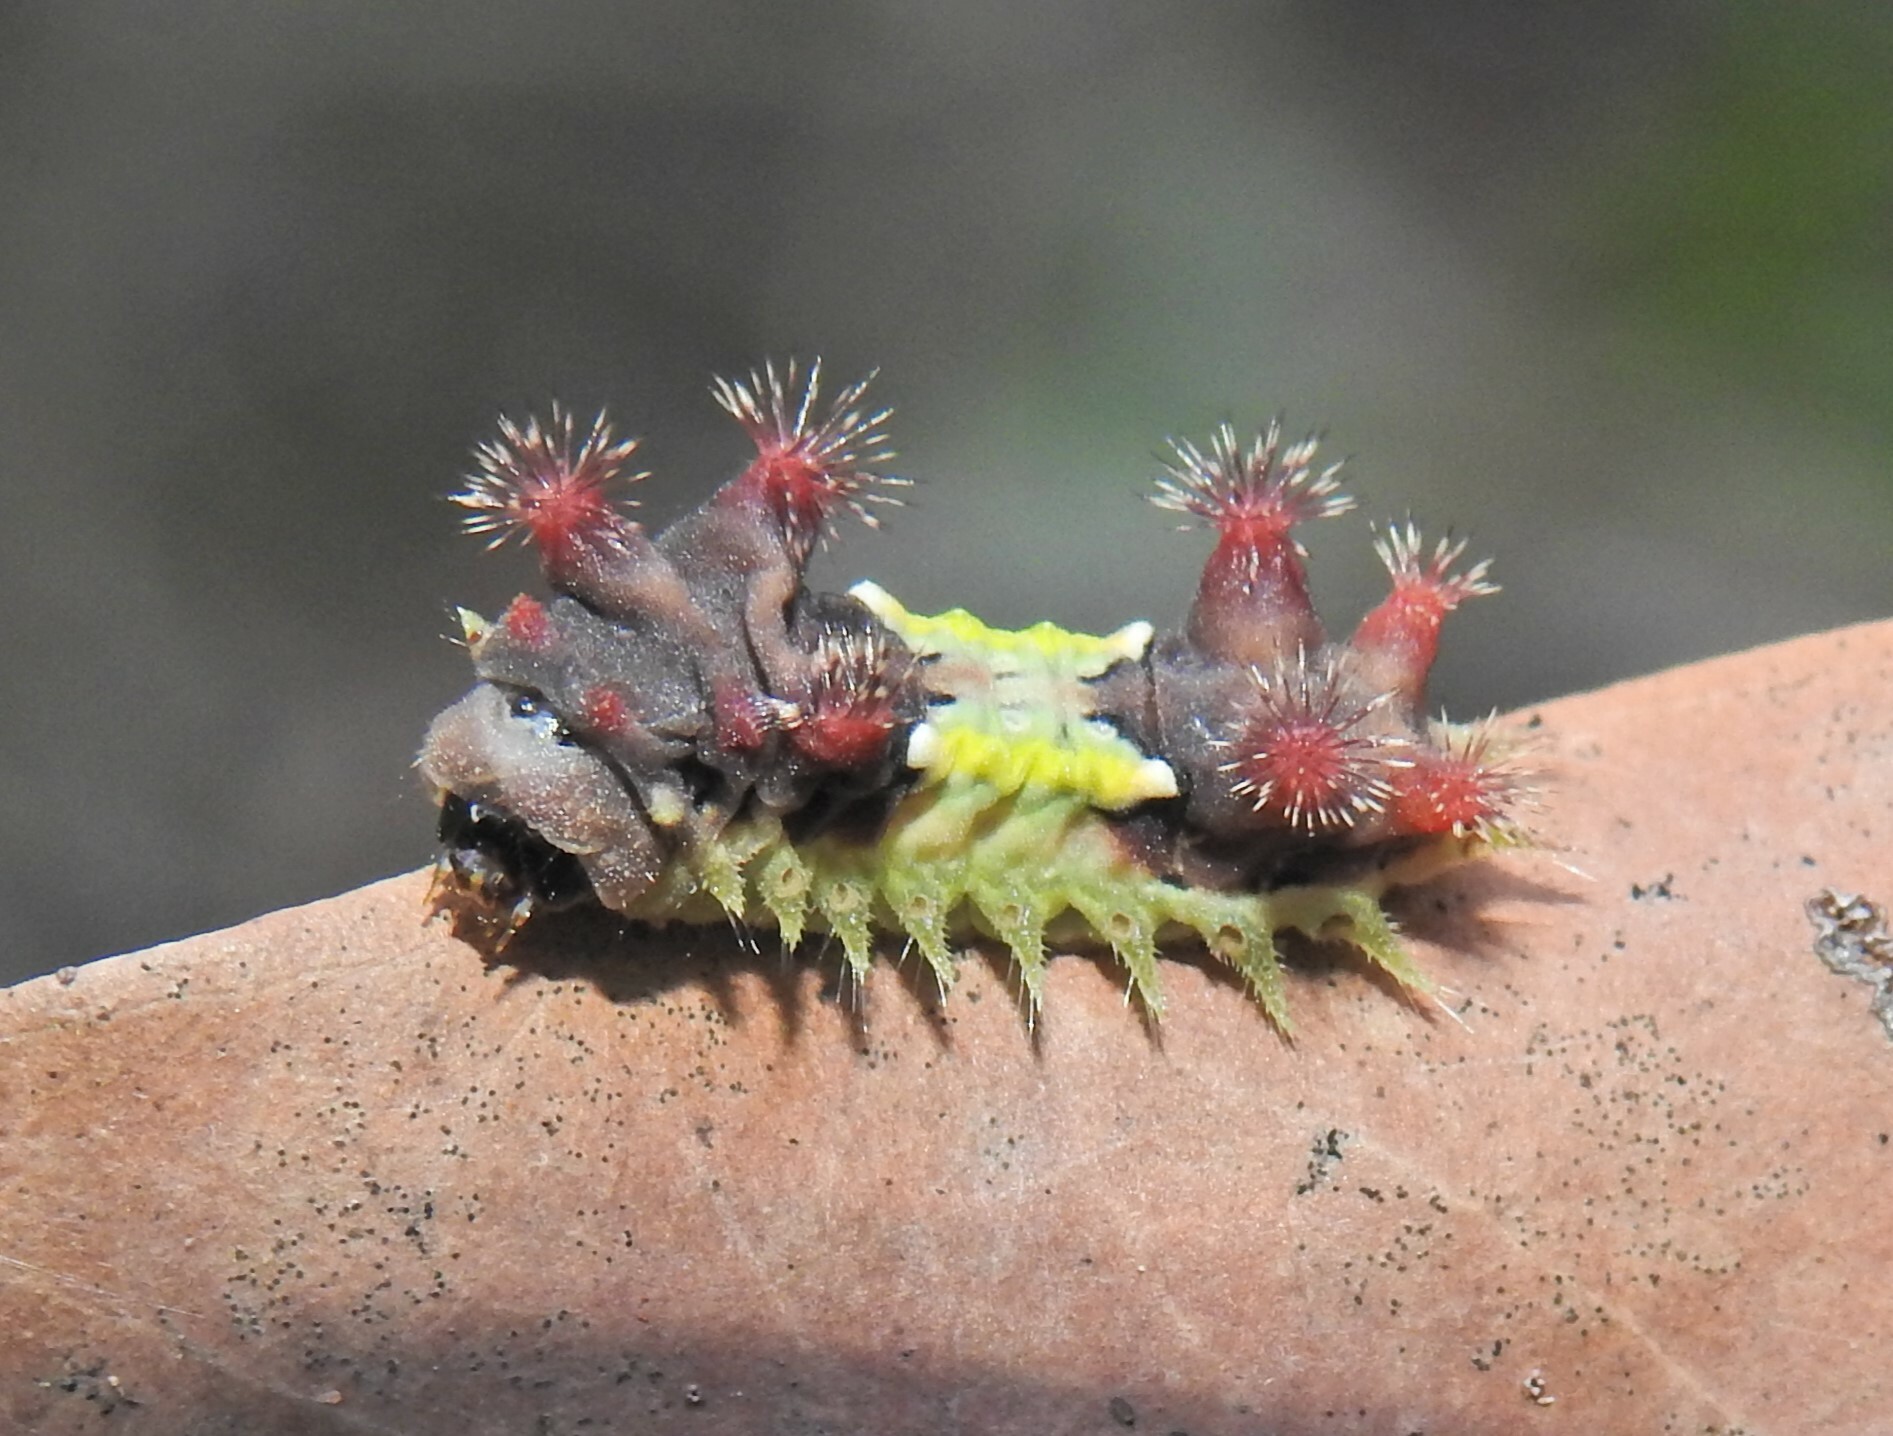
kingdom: Animalia
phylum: Arthropoda
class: Insecta
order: Lepidoptera
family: Limacodidae
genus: Doratifera
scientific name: Doratifera vulnerans
